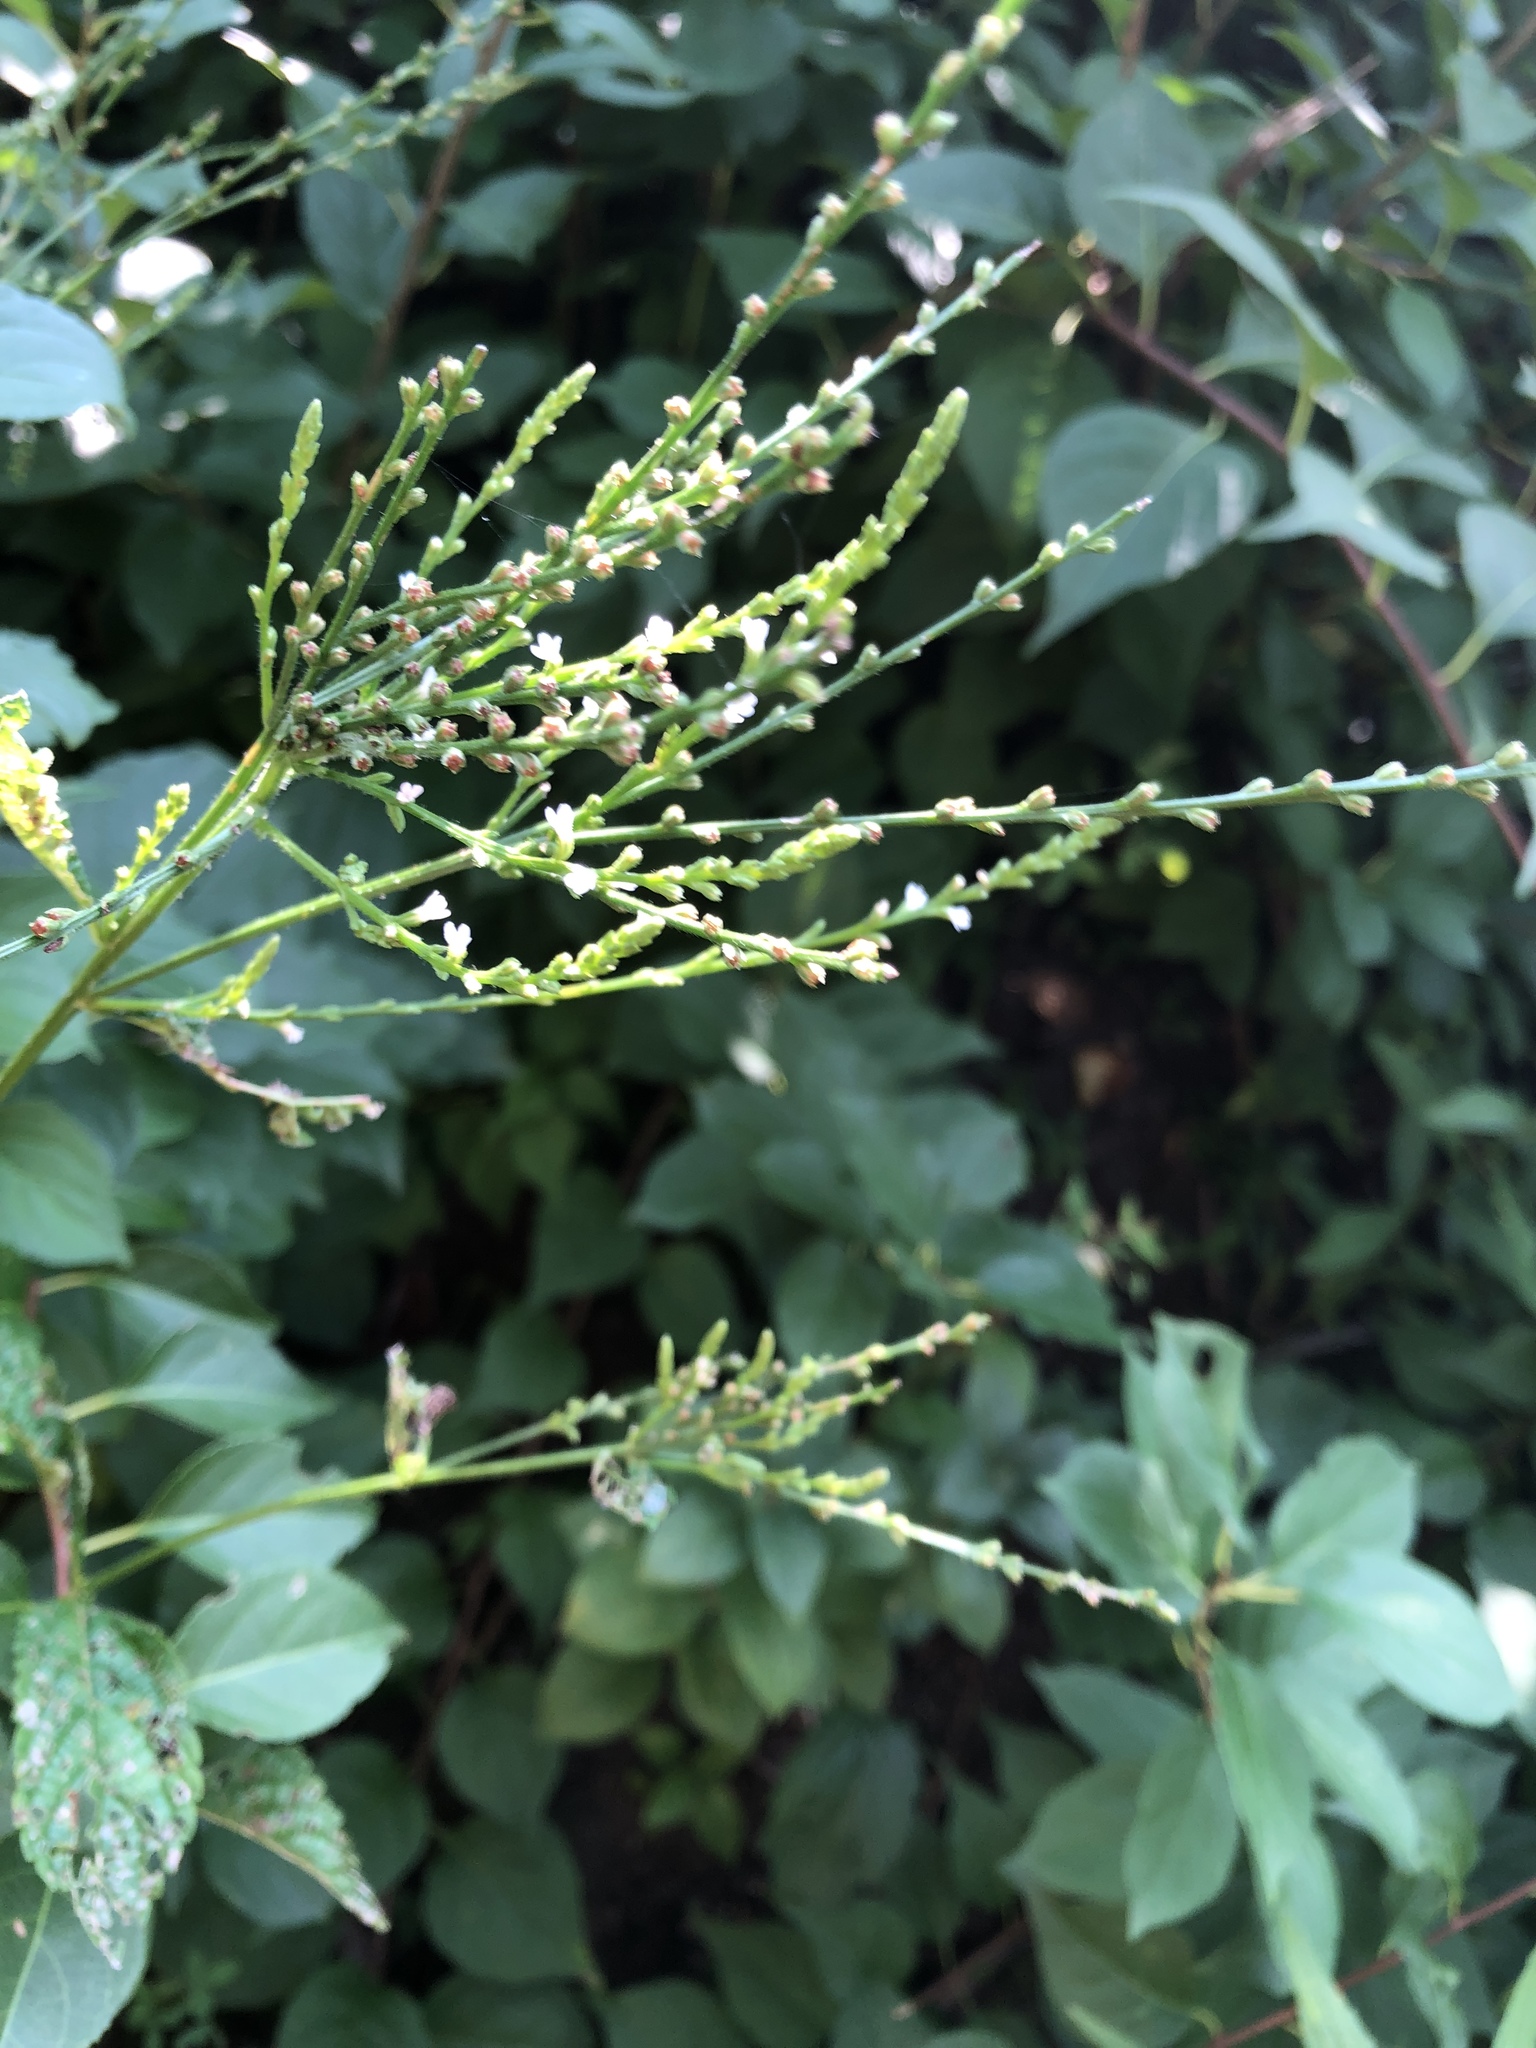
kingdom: Plantae
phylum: Tracheophyta
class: Magnoliopsida
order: Lamiales
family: Verbenaceae
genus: Verbena
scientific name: Verbena urticifolia
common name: Nettle-leaved vervain
